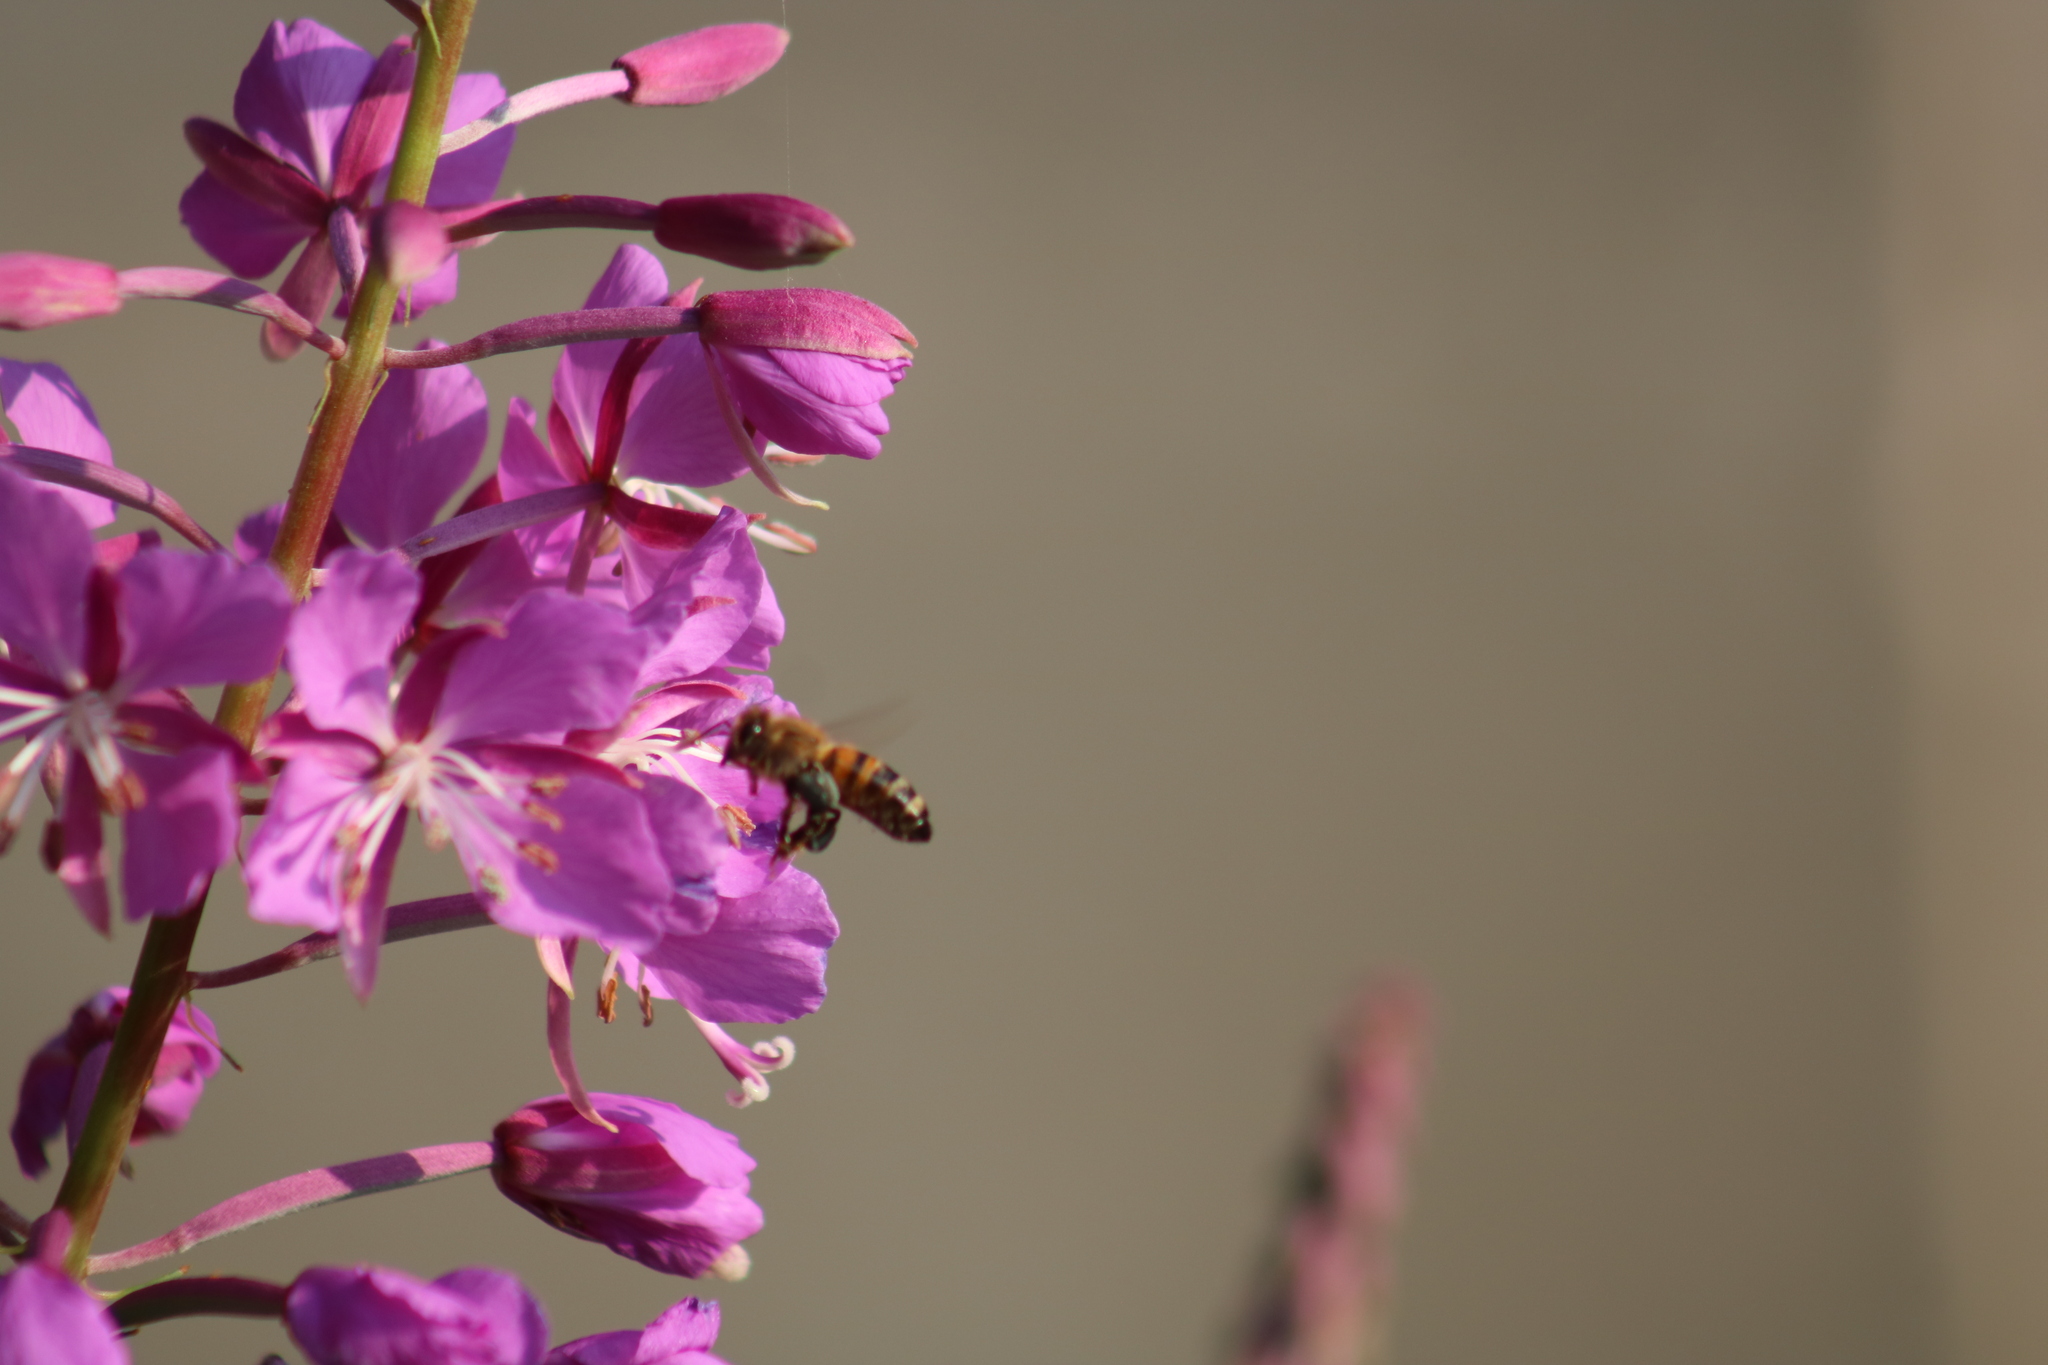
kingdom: Animalia
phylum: Arthropoda
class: Insecta
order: Hymenoptera
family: Apidae
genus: Apis
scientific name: Apis mellifera
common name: Honey bee
